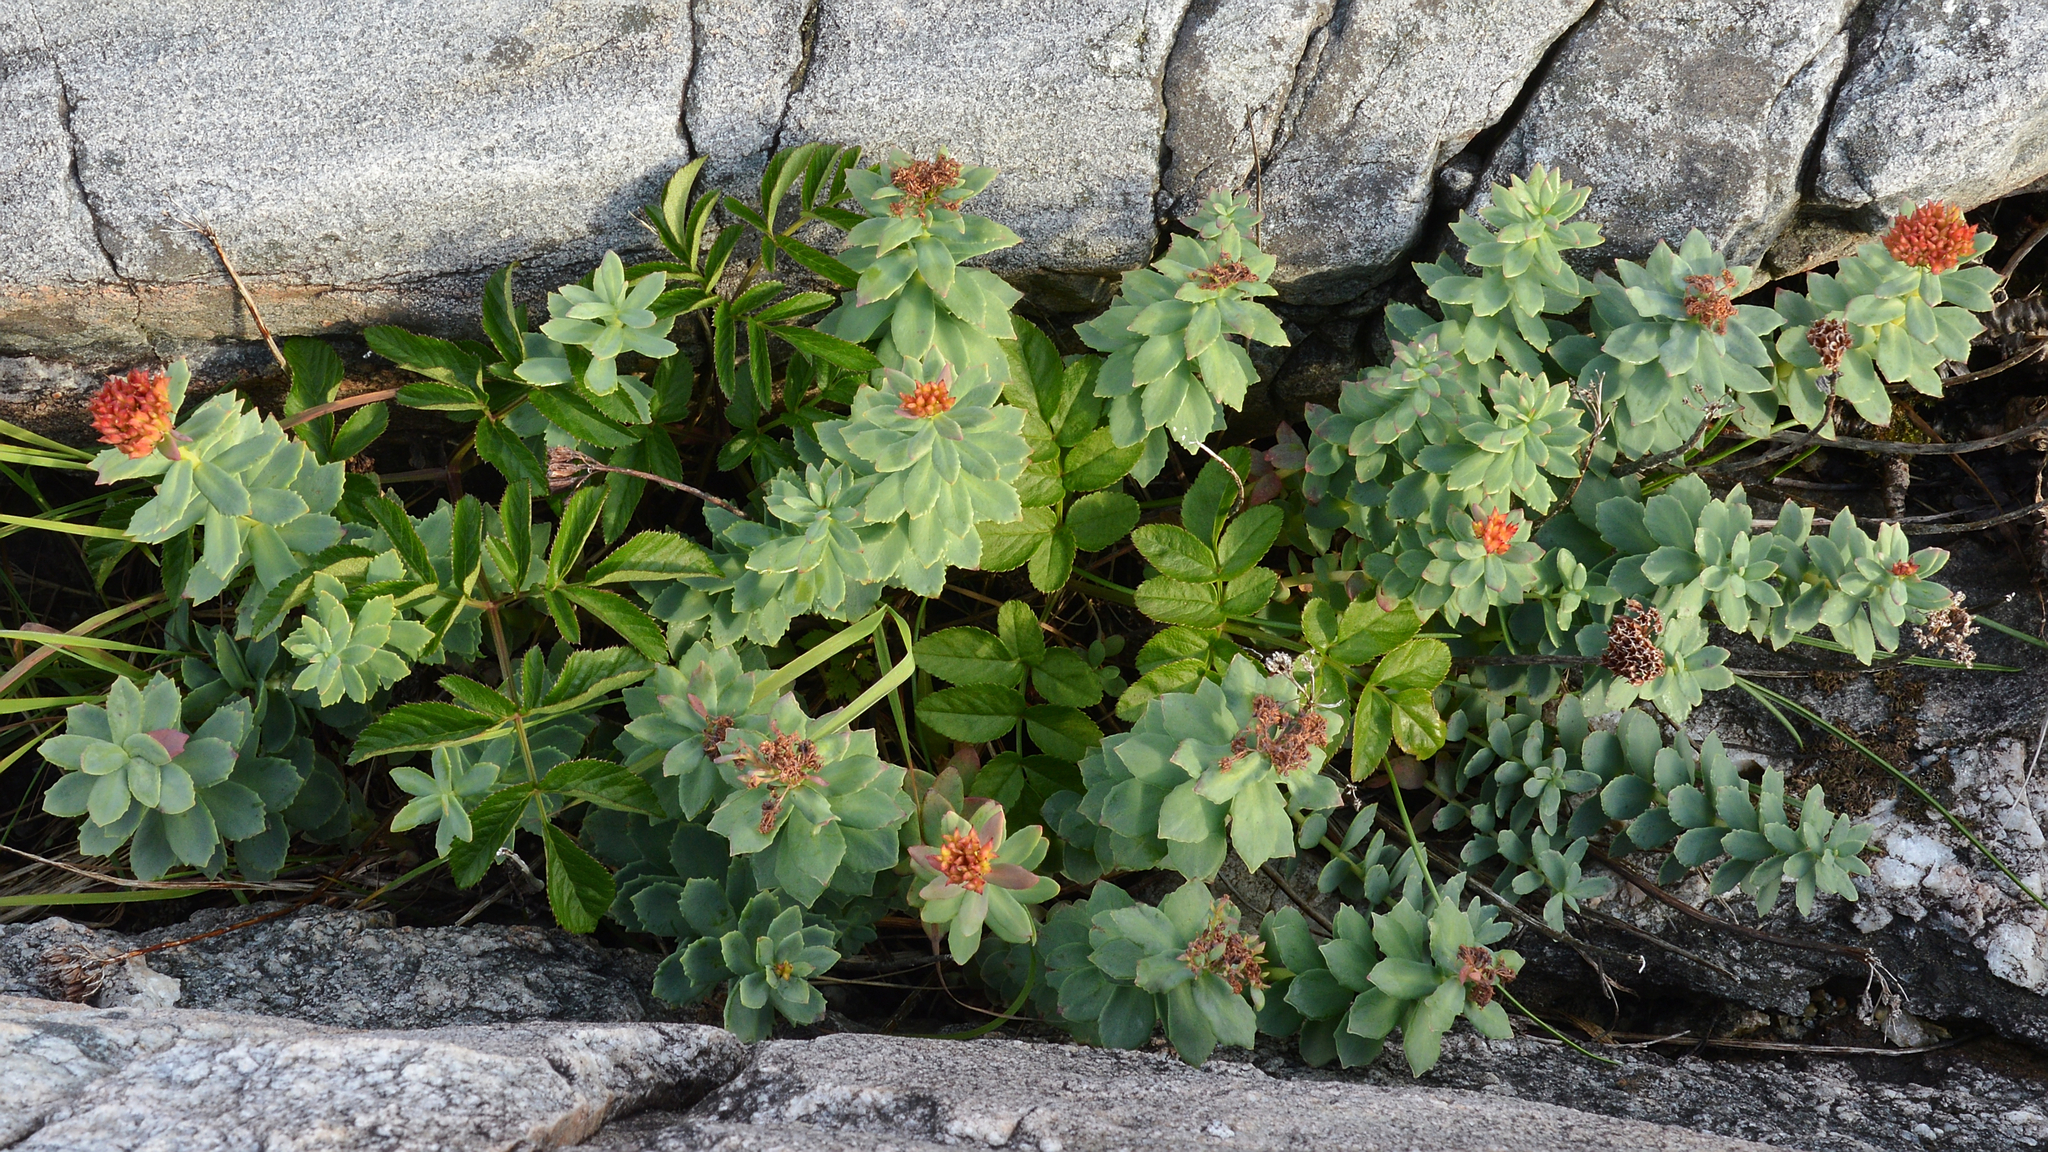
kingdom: Plantae
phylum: Tracheophyta
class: Magnoliopsida
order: Saxifragales
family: Crassulaceae
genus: Rhodiola
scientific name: Rhodiola rosea
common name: Roseroot
